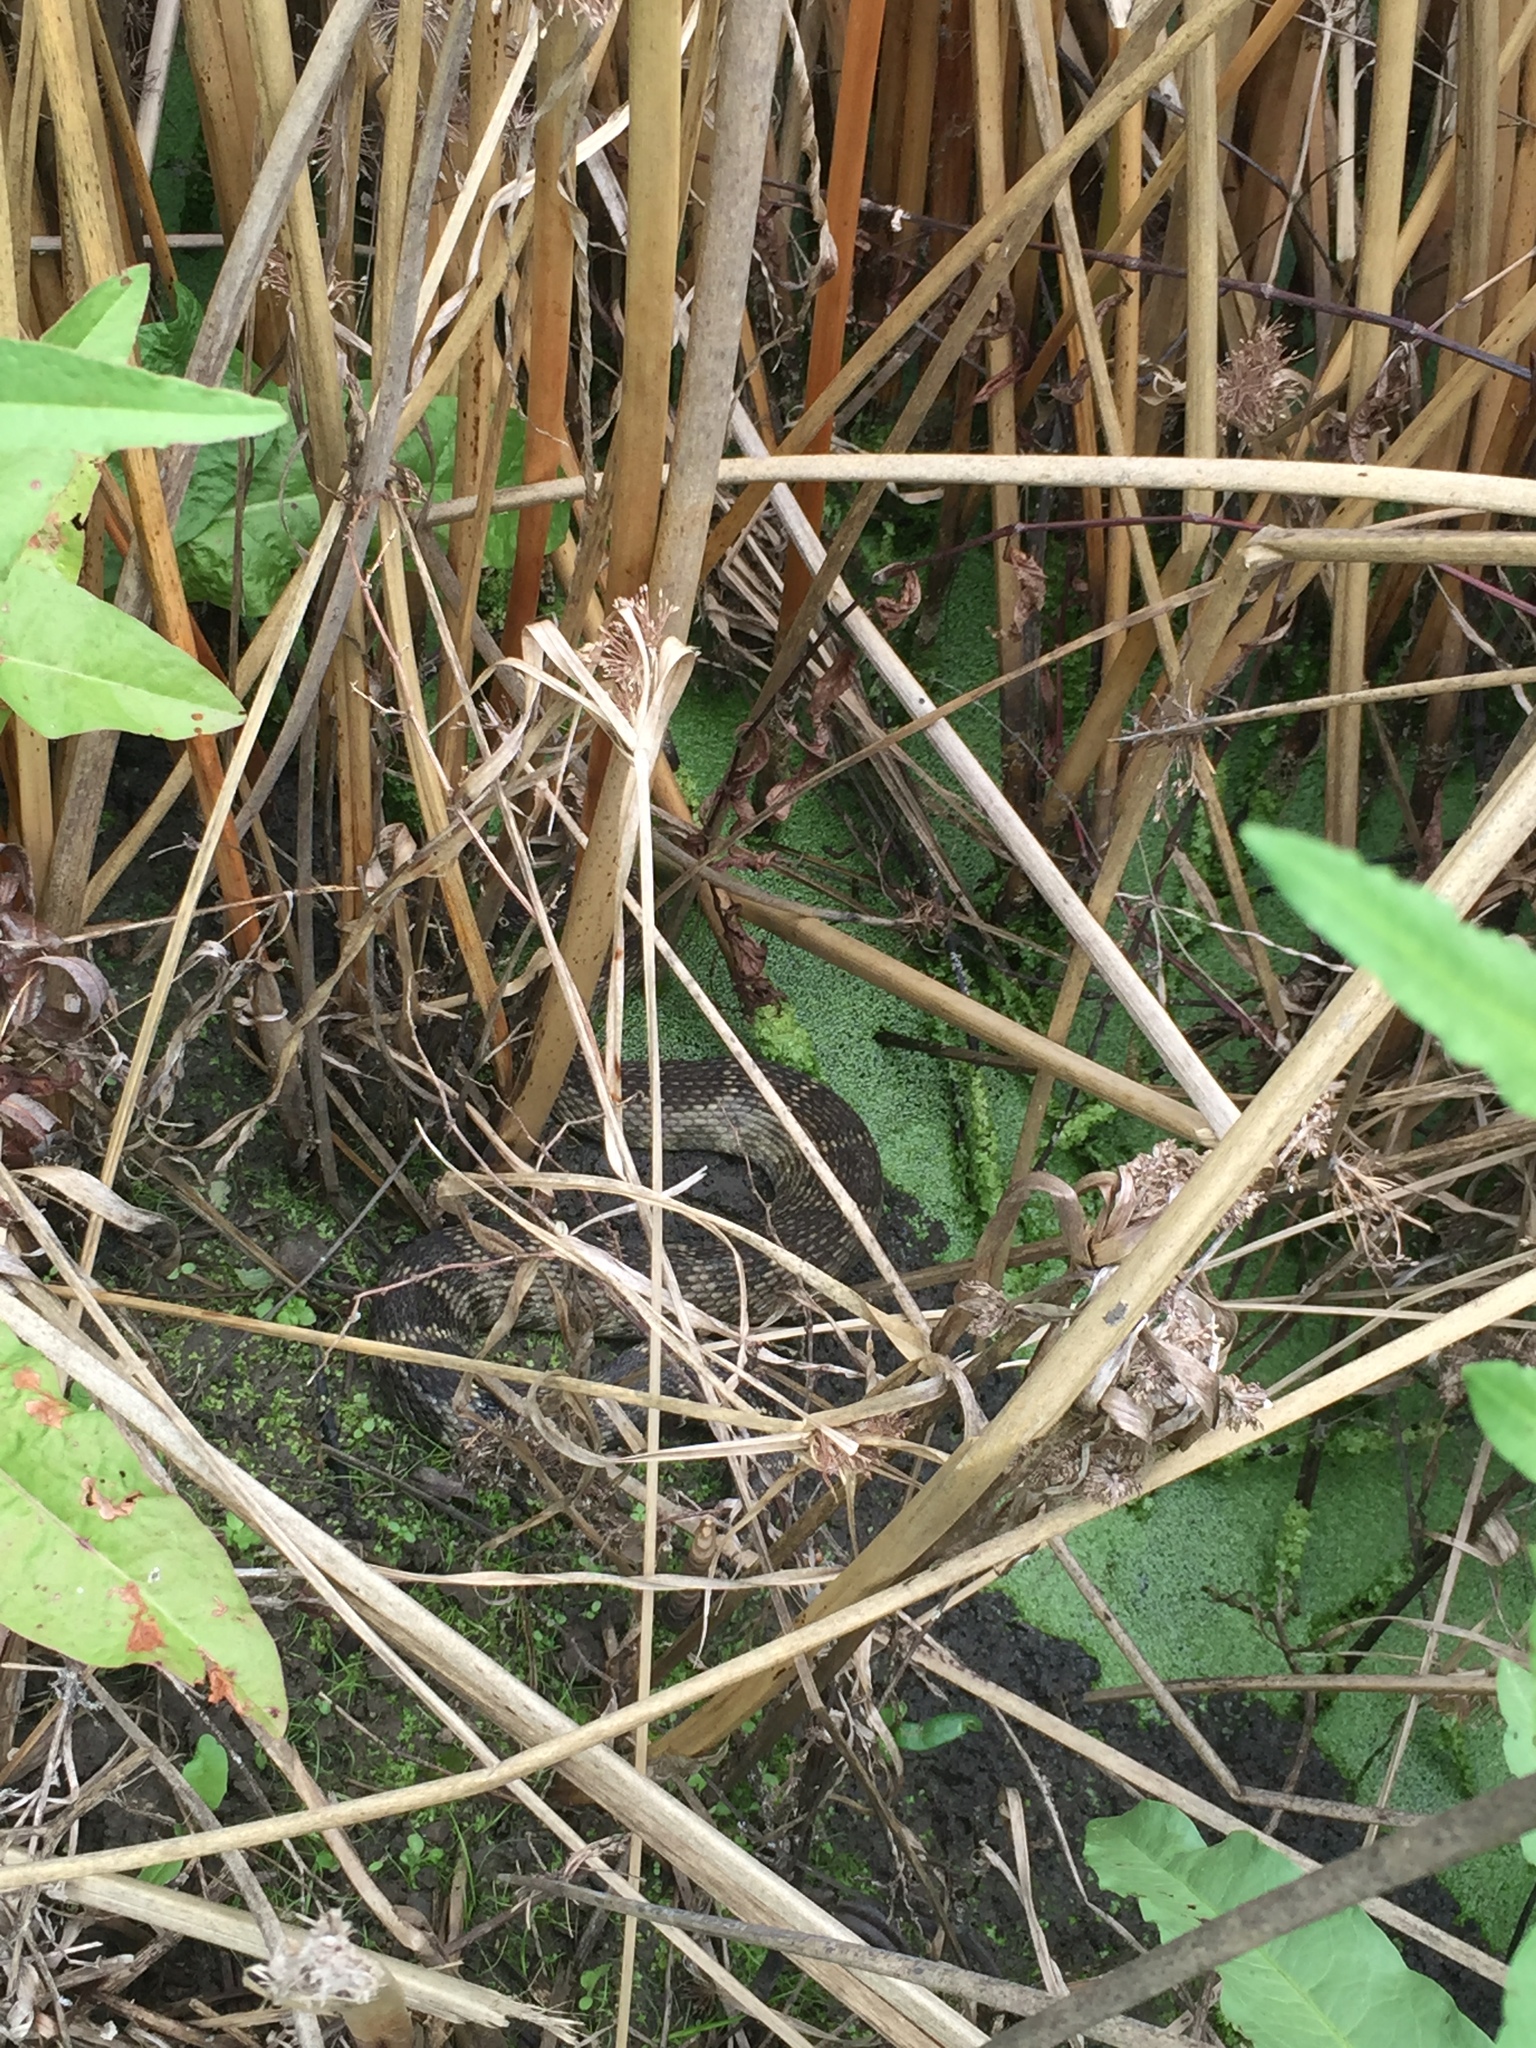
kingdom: Animalia
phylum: Chordata
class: Squamata
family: Viperidae
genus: Crotalus
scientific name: Crotalus oreganus
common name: Abyssus
